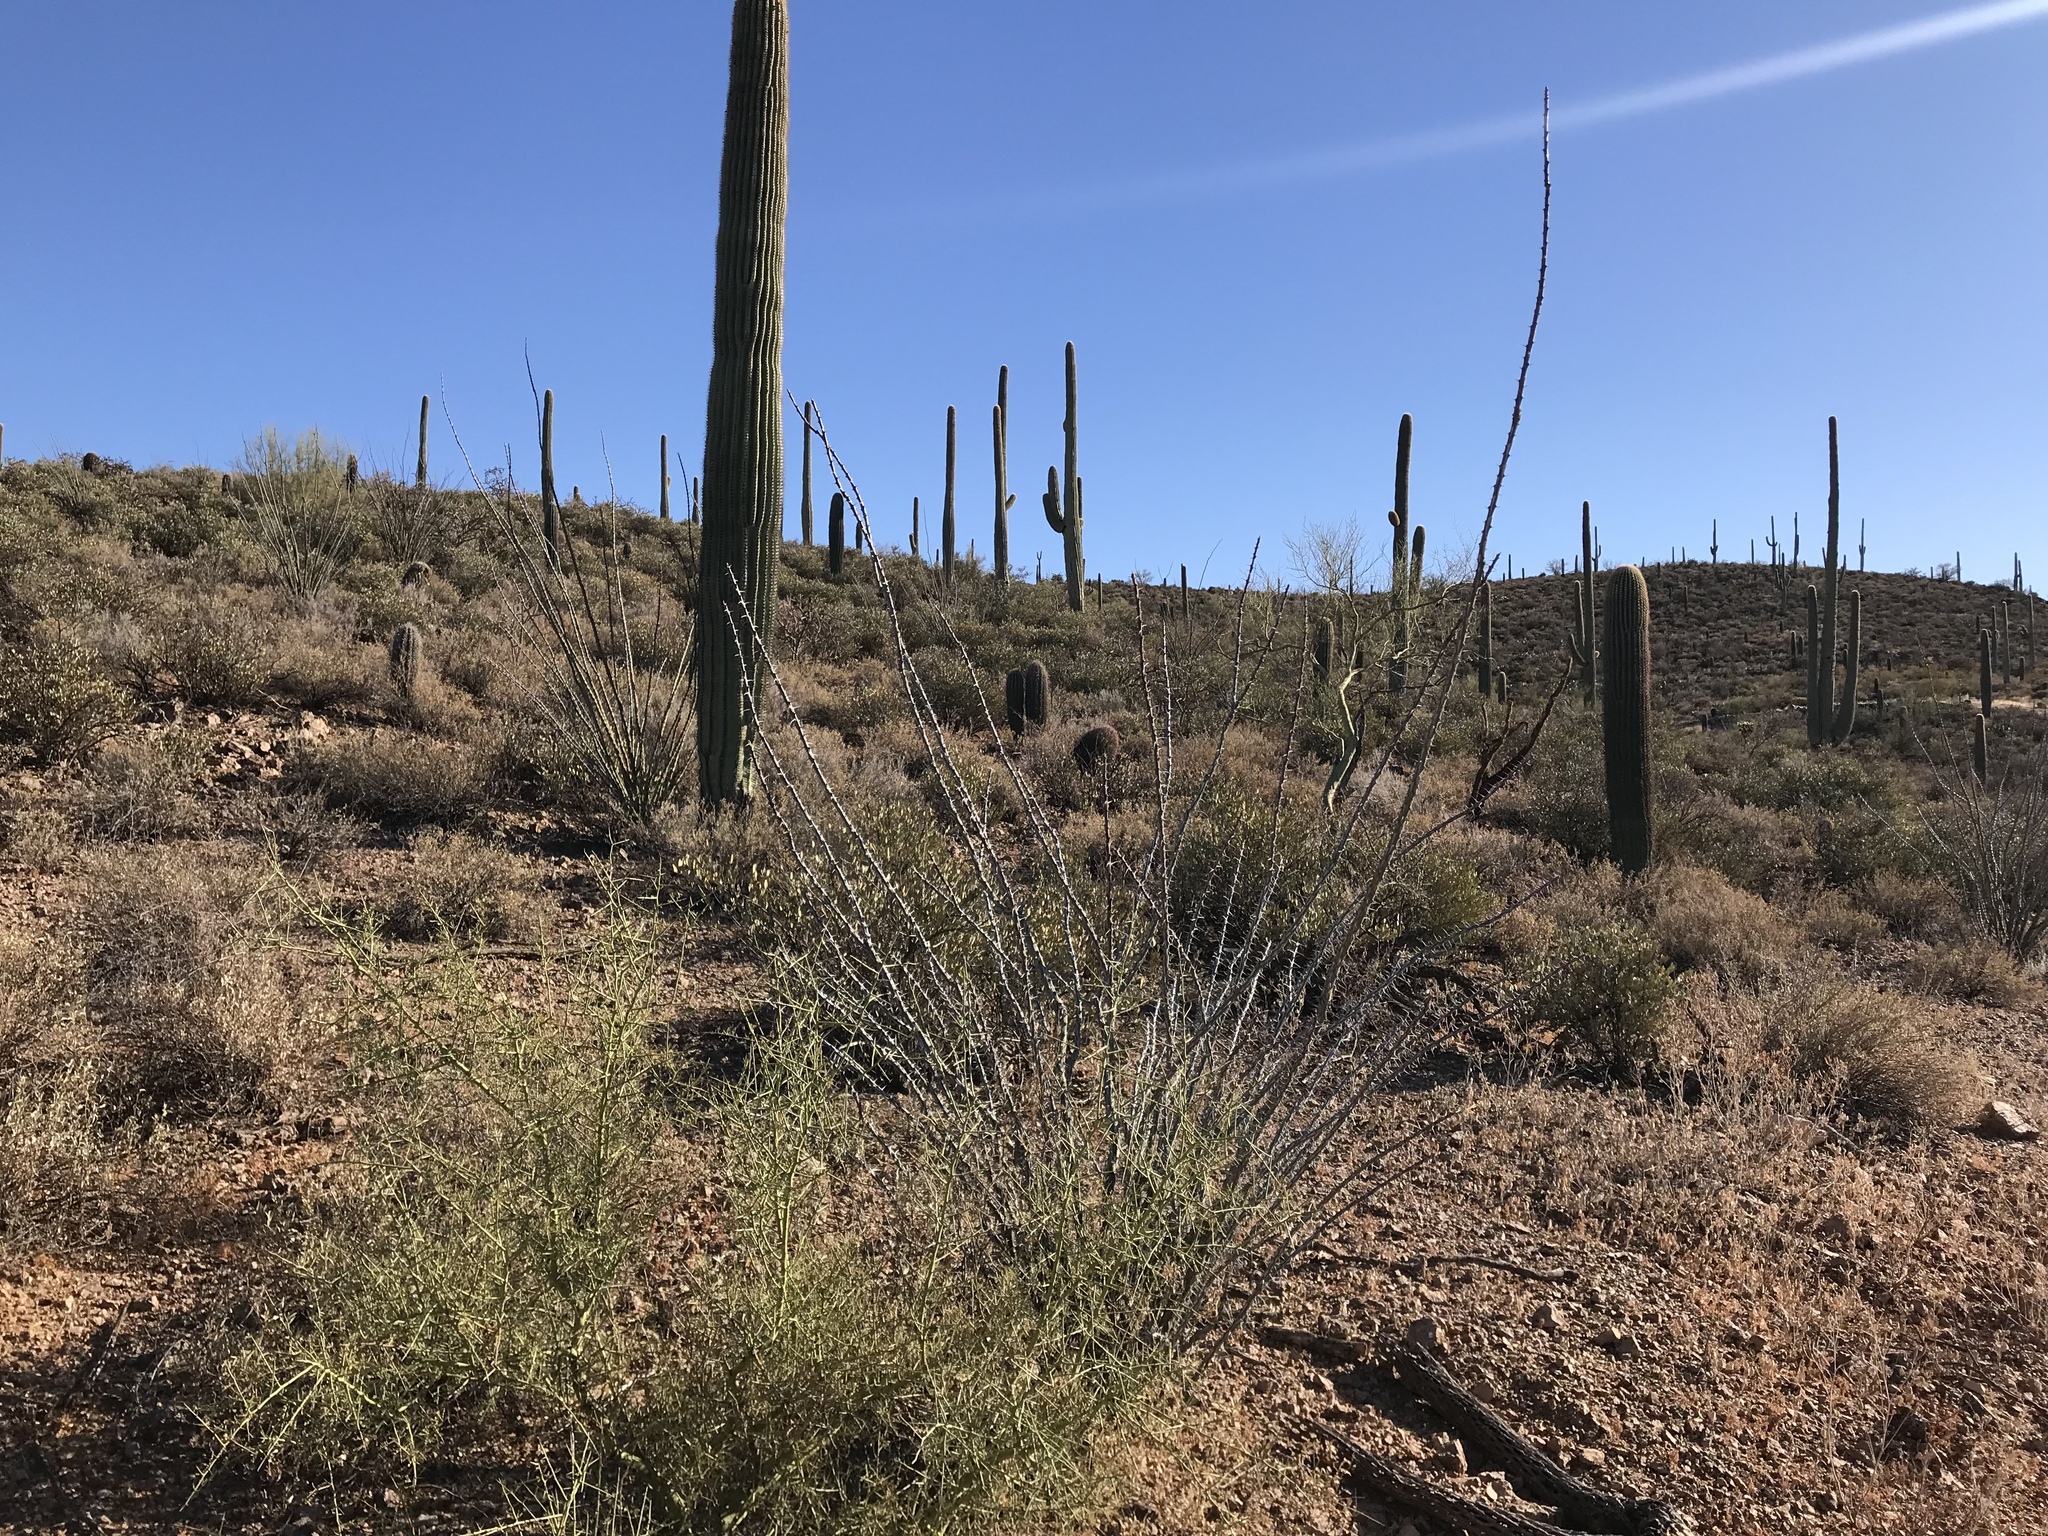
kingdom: Plantae
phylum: Tracheophyta
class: Magnoliopsida
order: Ericales
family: Fouquieriaceae
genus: Fouquieria
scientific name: Fouquieria splendens
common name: Vine-cactus
